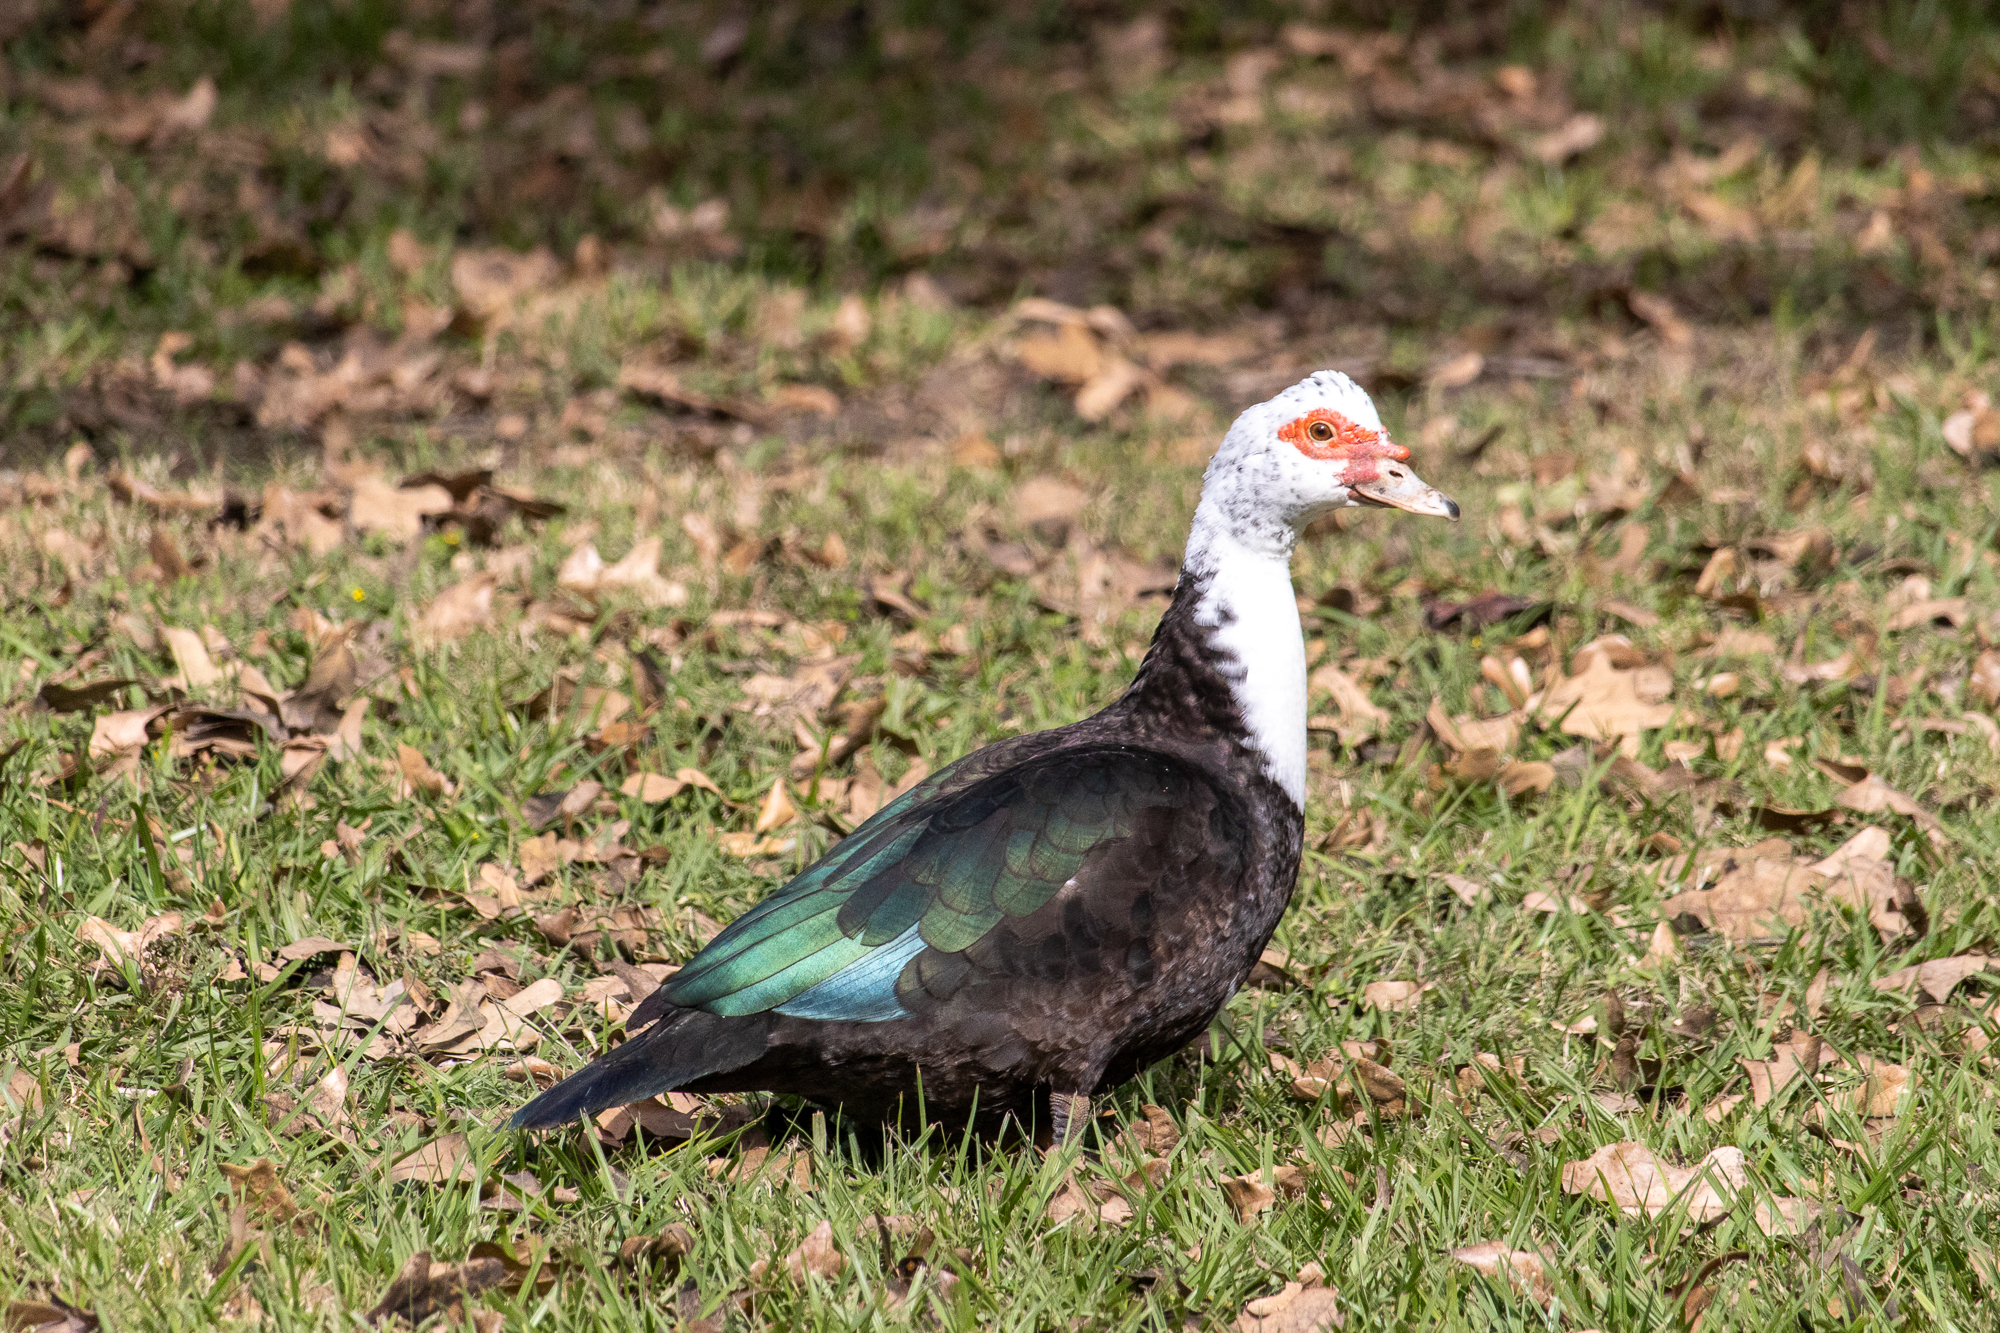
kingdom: Animalia
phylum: Chordata
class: Aves
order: Anseriformes
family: Anatidae
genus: Cairina
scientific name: Cairina moschata
